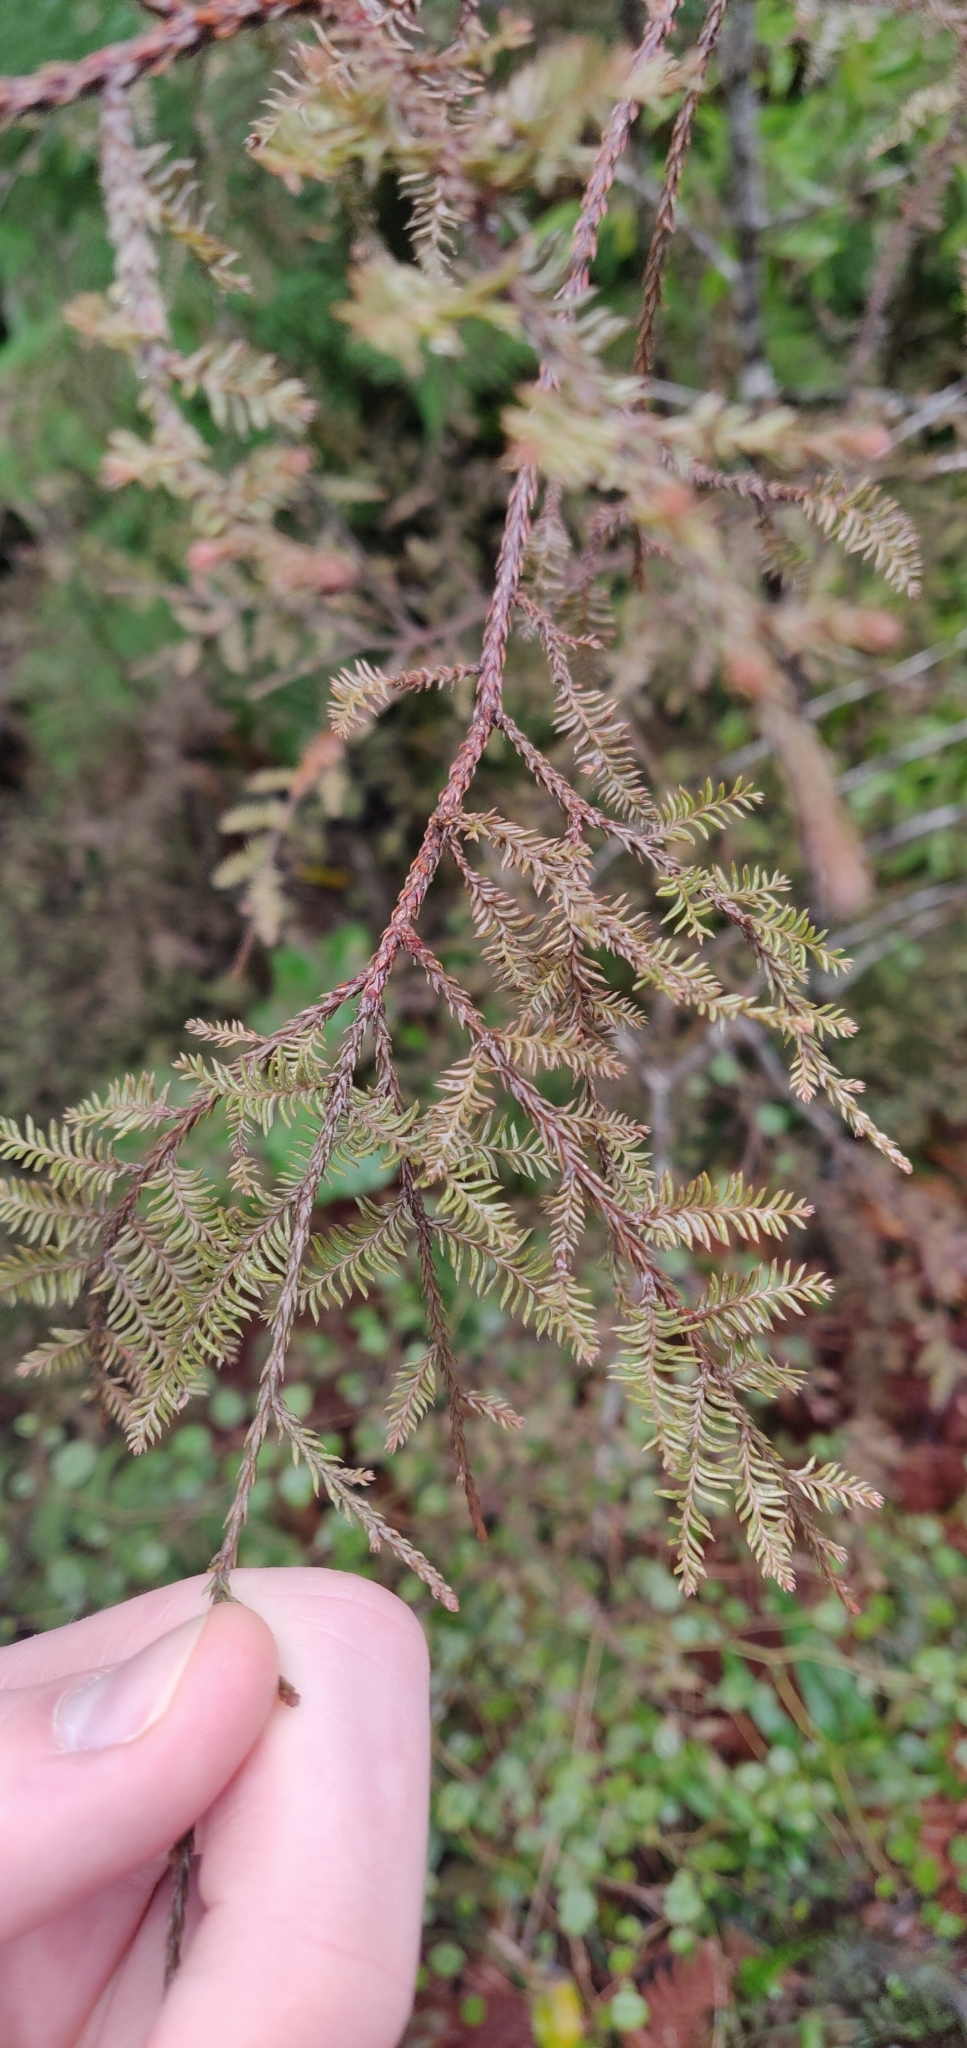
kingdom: Plantae
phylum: Tracheophyta
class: Pinopsida
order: Pinales
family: Podocarpaceae
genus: Dacrycarpus
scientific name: Dacrycarpus dacrydioides
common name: White pine
